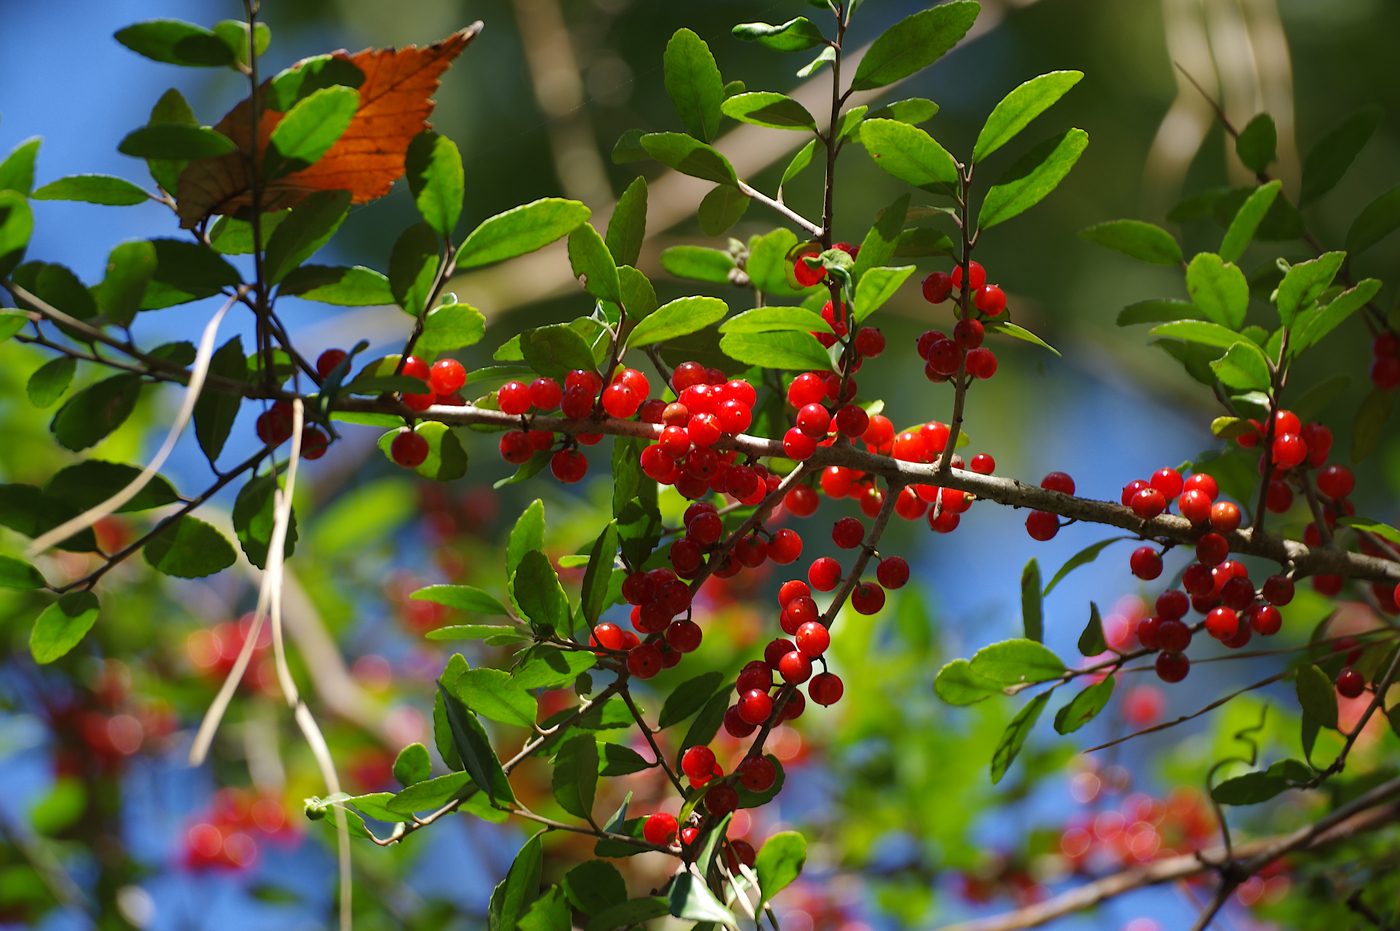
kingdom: Plantae
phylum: Tracheophyta
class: Magnoliopsida
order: Aquifoliales
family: Aquifoliaceae
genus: Ilex
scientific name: Ilex vomitoria
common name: Yaupon holly
